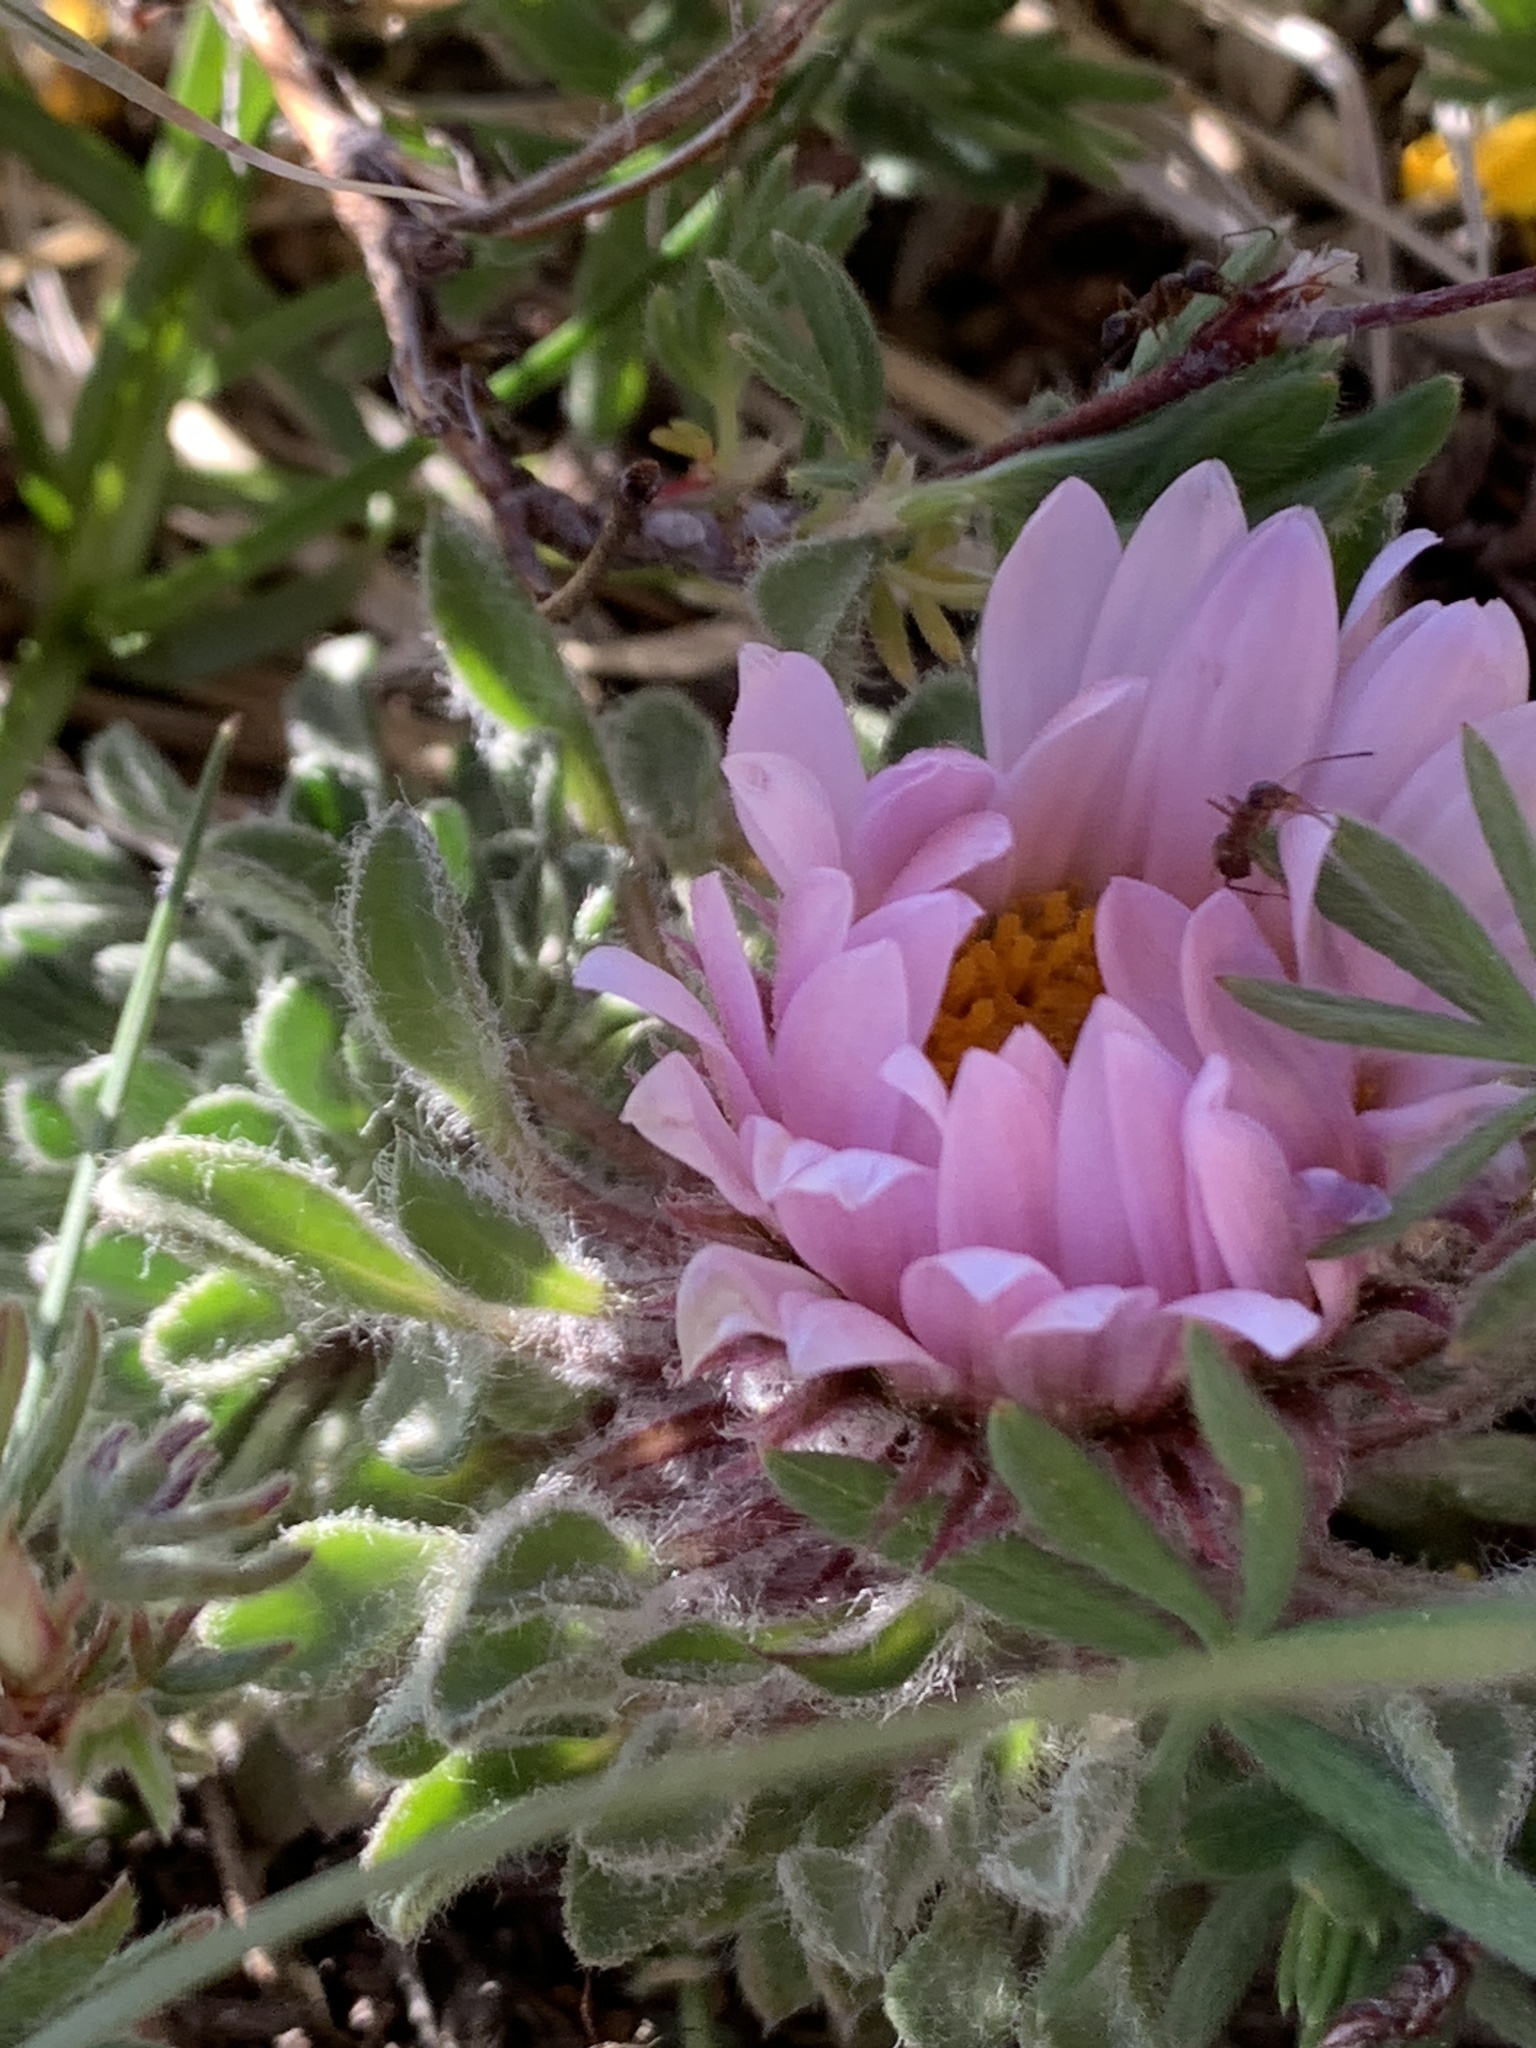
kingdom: Plantae
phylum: Tracheophyta
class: Magnoliopsida
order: Asterales
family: Asteraceae
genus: Townsendia
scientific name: Townsendia condensata
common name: Alpine townsend daisy
